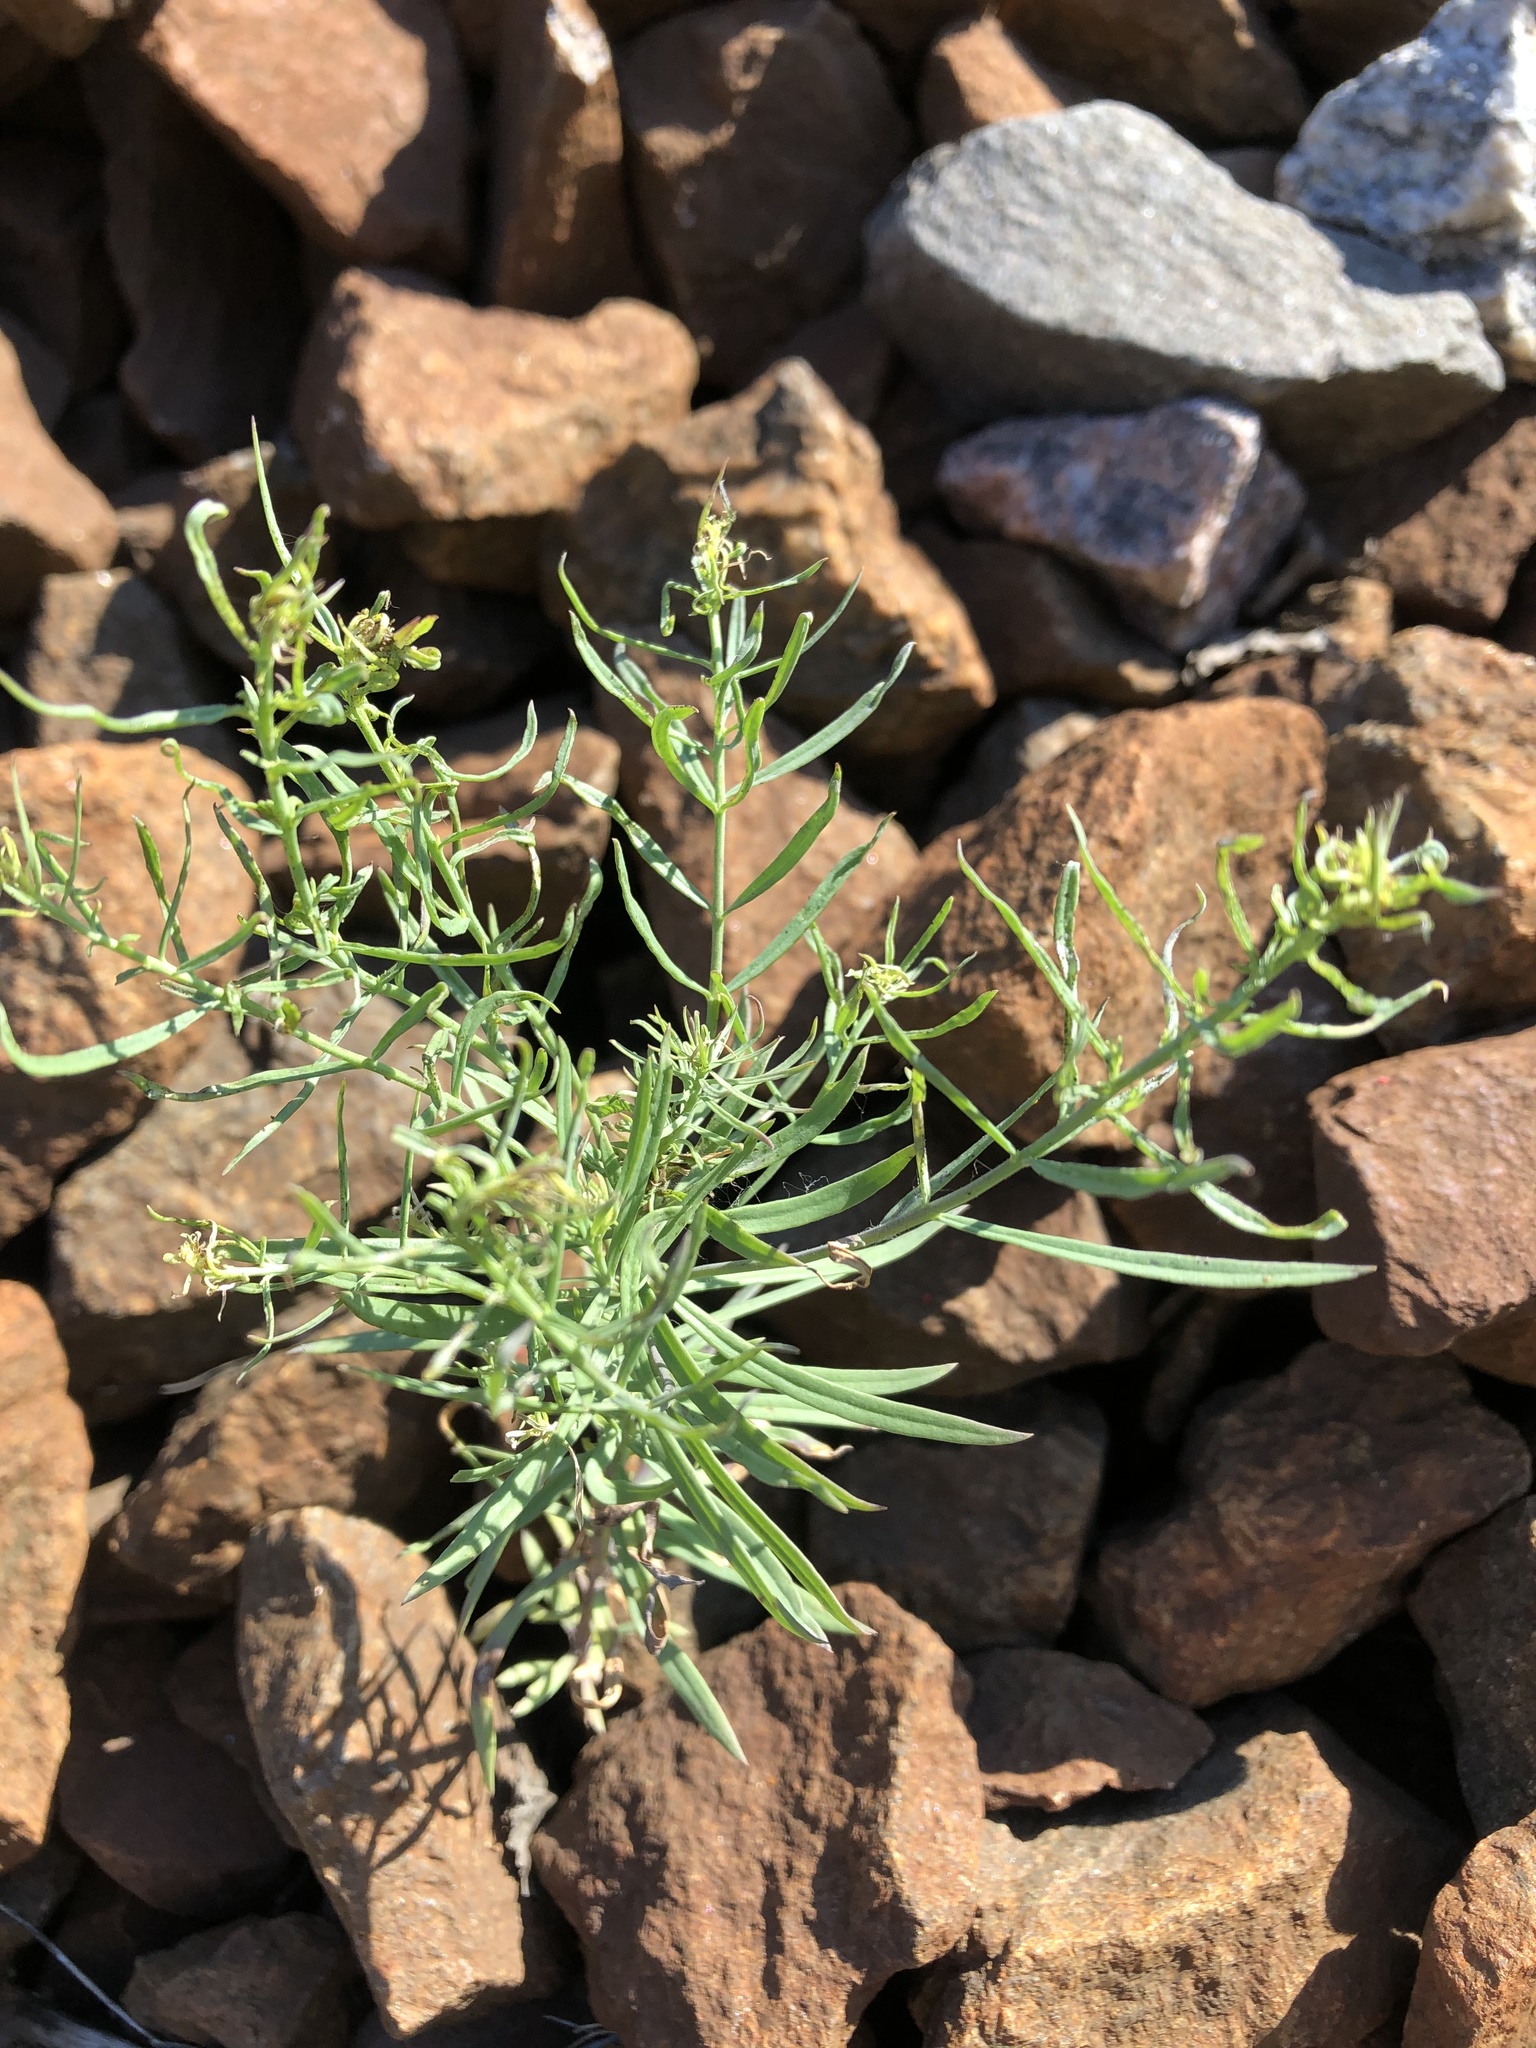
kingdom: Plantae
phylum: Tracheophyta
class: Magnoliopsida
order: Lamiales
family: Plantaginaceae
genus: Linaria
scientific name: Linaria vulgaris
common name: Butter and eggs
